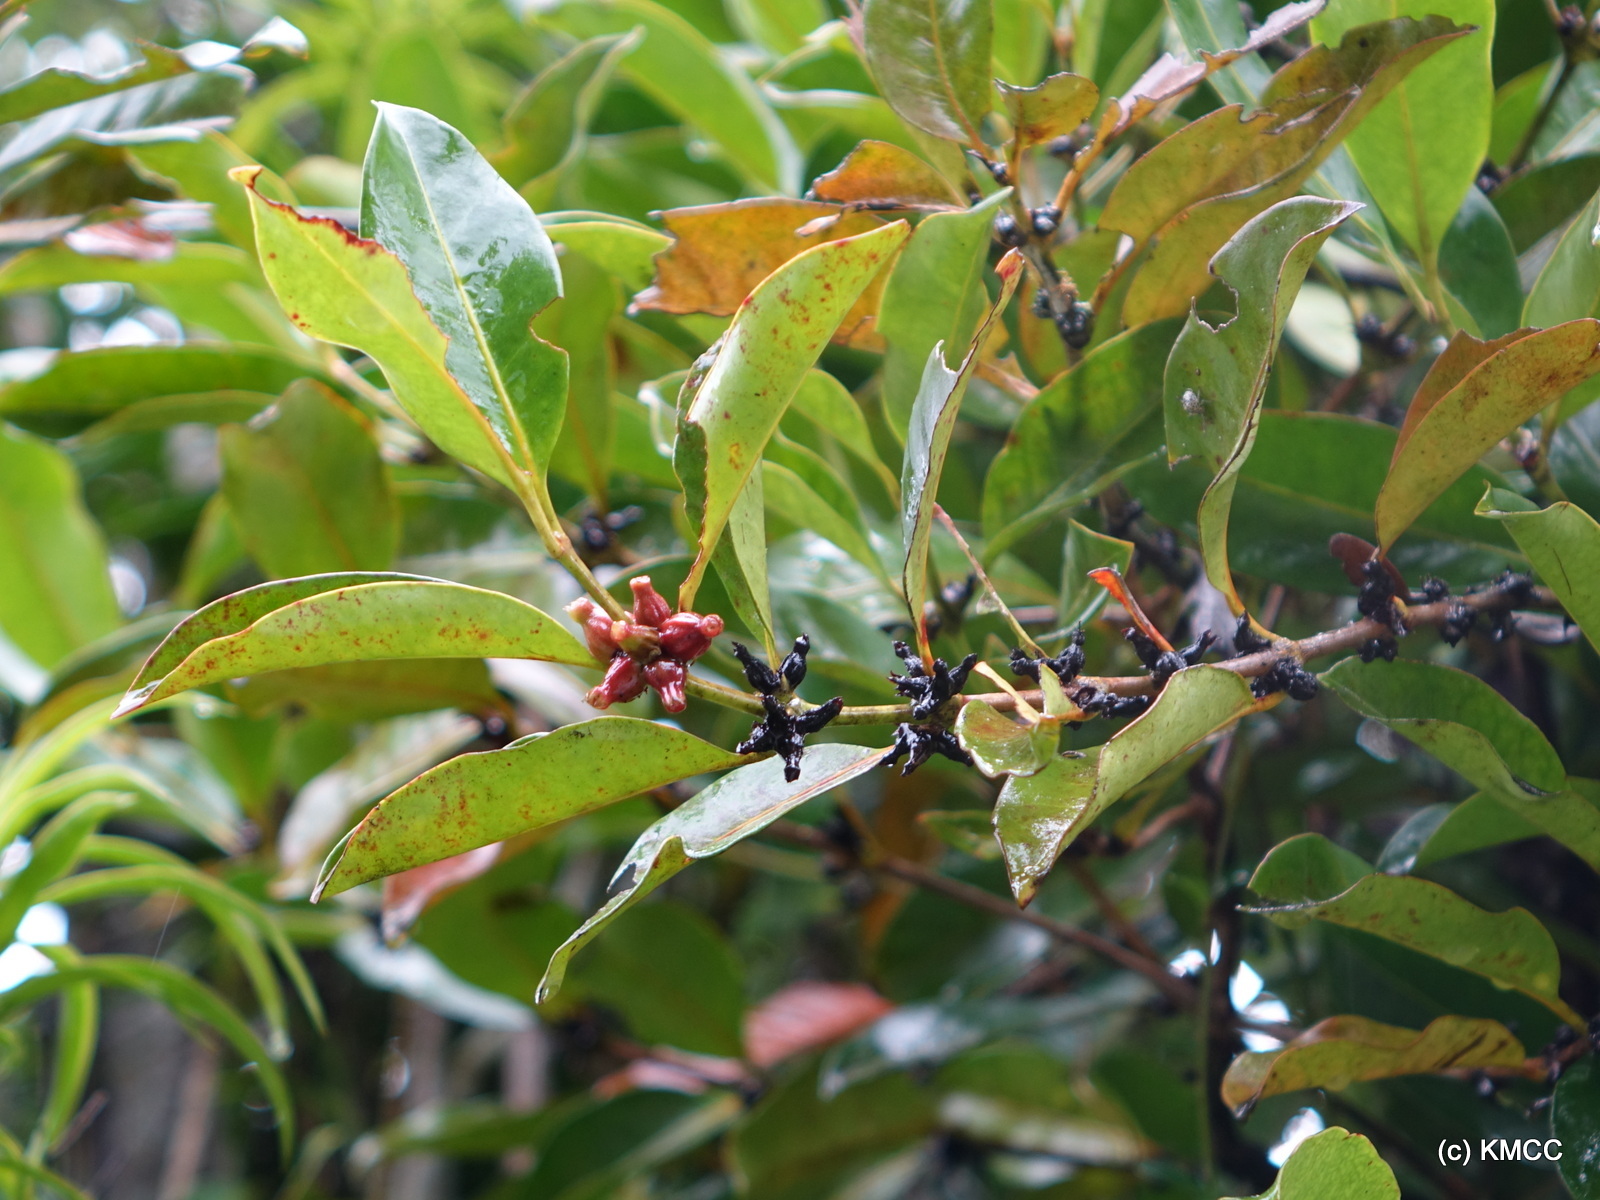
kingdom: Plantae
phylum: Tracheophyta
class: Magnoliopsida
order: Gentianales
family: Rubiaceae
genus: Chapelieria
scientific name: Chapelieria madagascariensis
